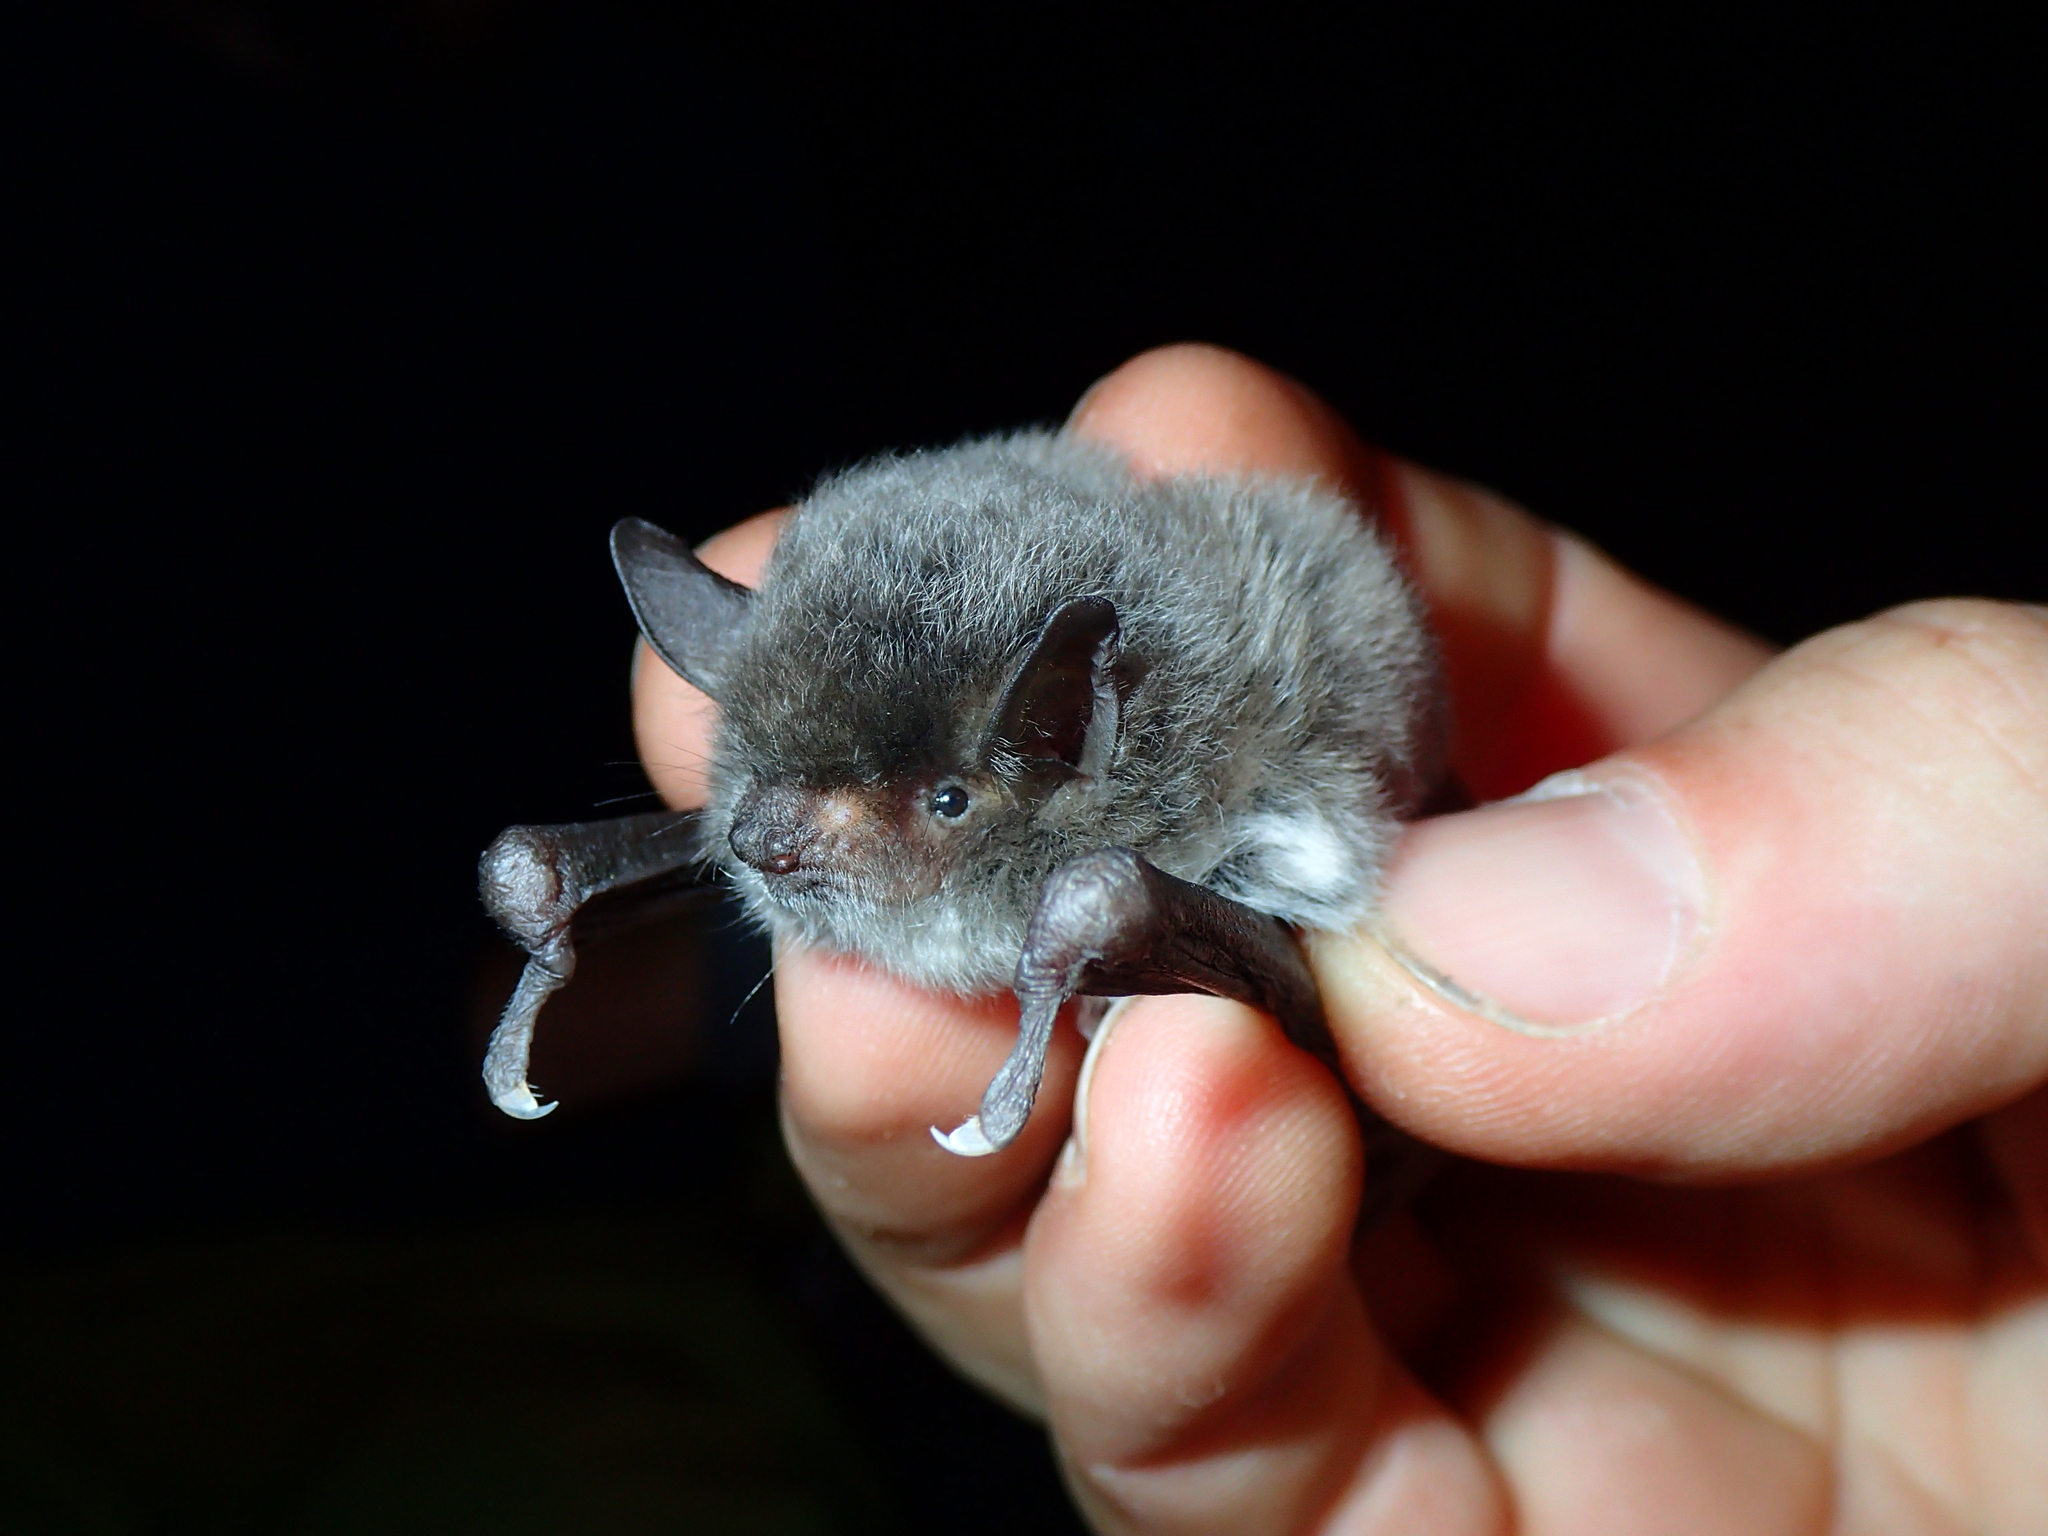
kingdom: Animalia
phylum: Chordata
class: Mammalia
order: Chiroptera
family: Vespertilionidae
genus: Myotis
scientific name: Myotis capaccinii
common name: Long-fingered bat
